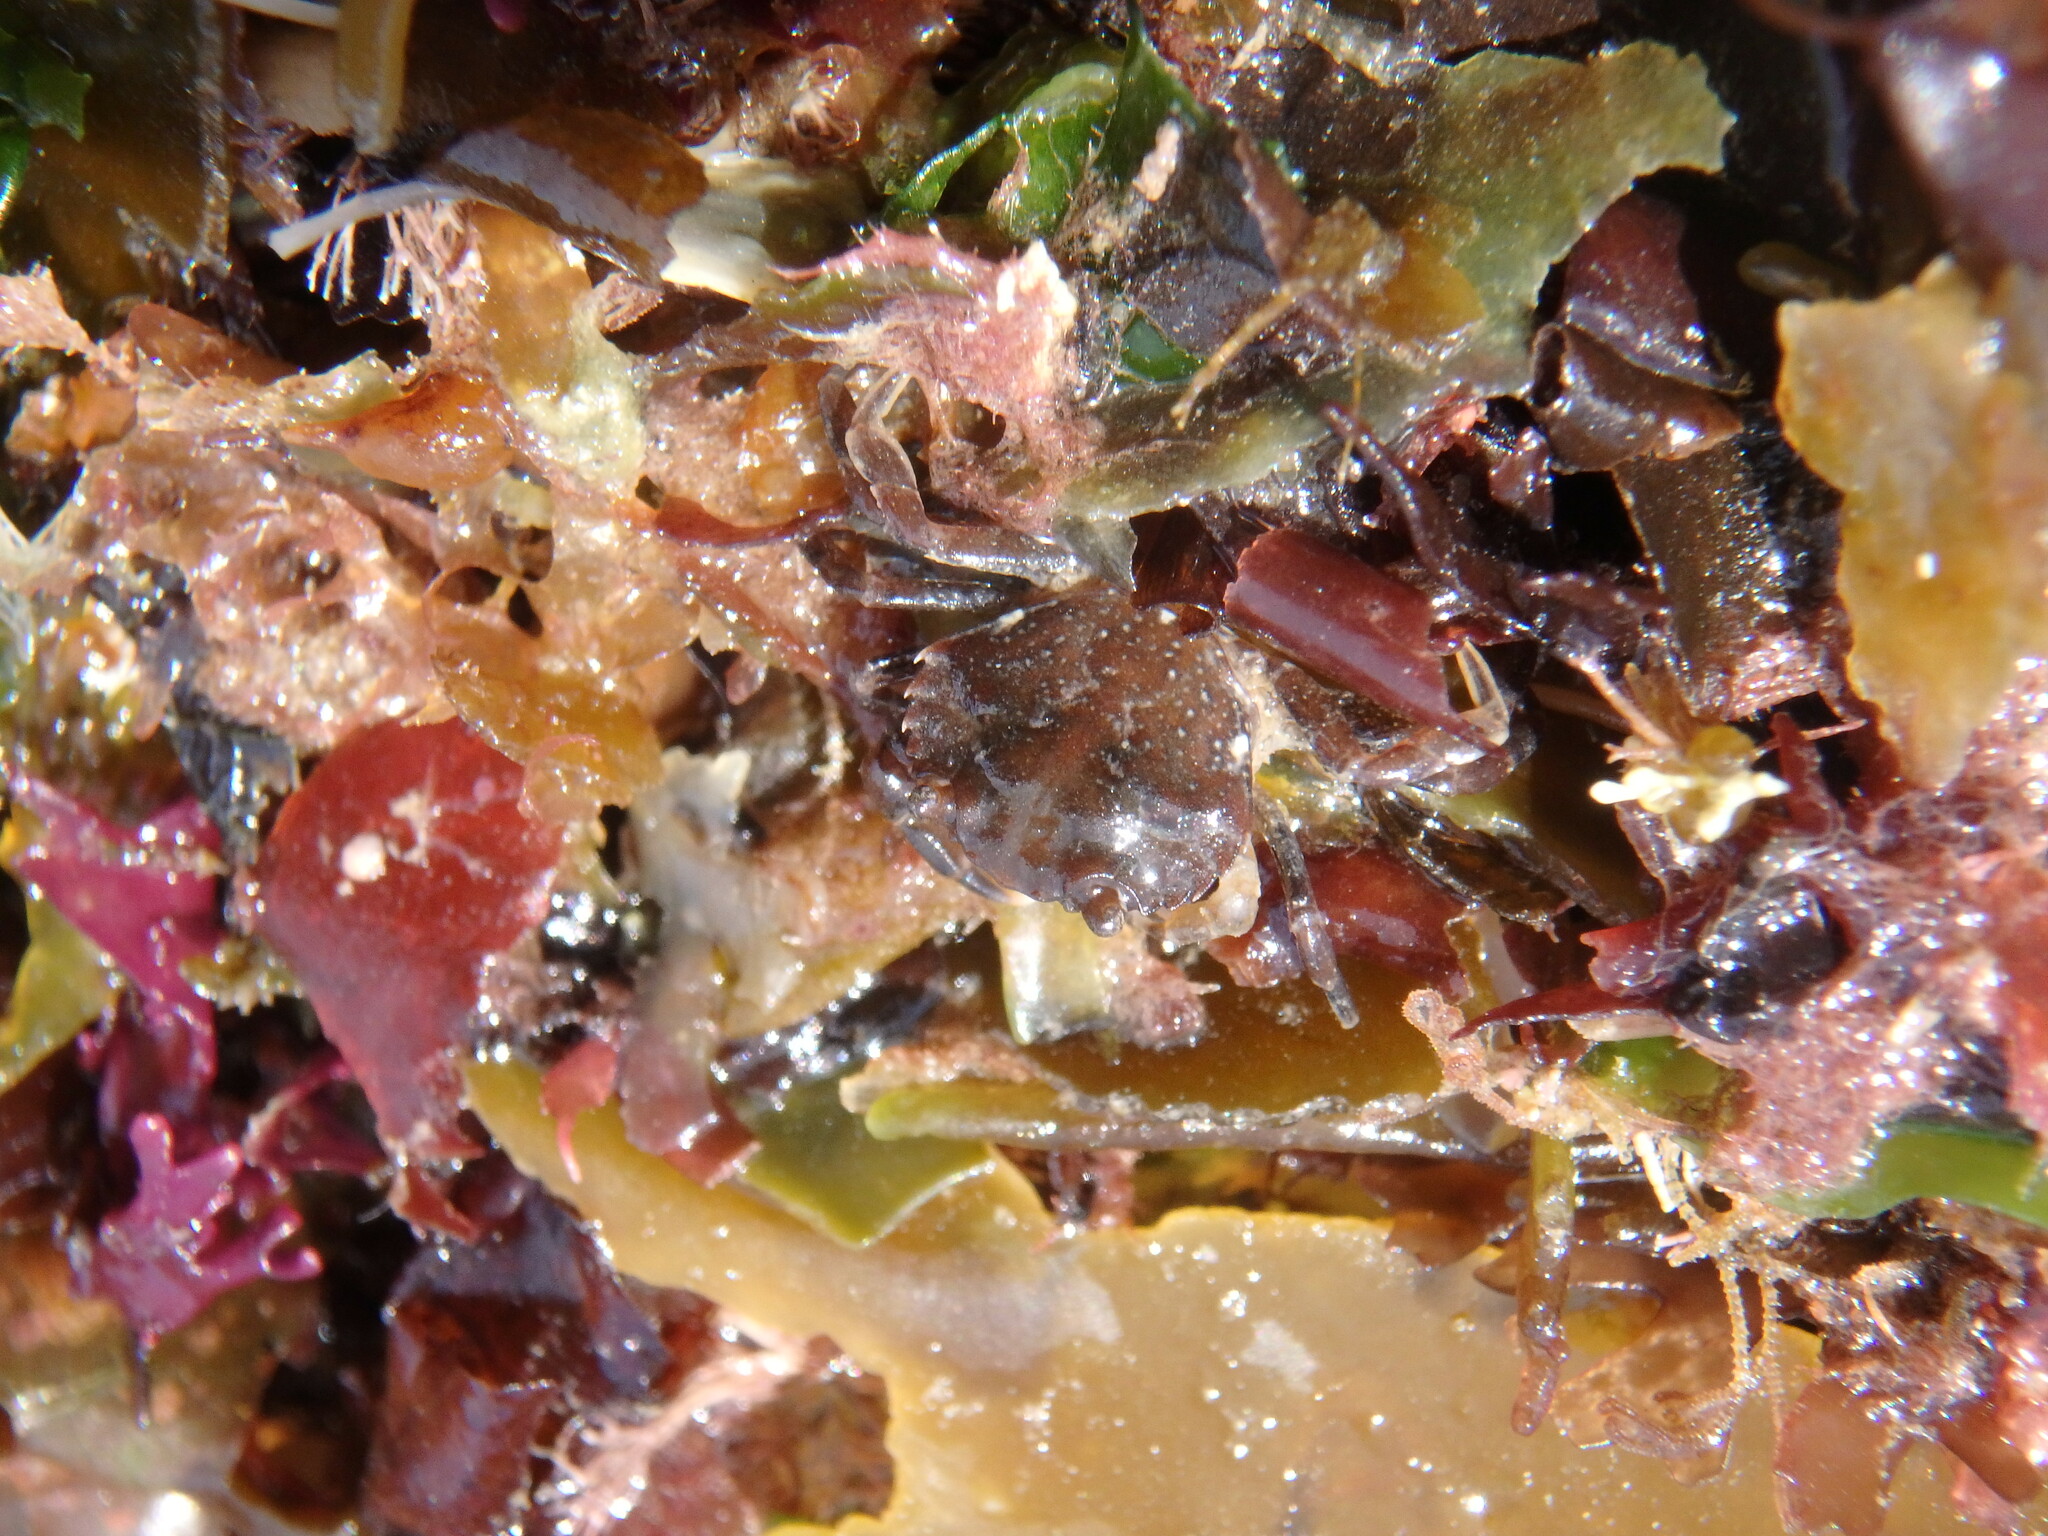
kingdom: Animalia
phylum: Arthropoda
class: Malacostraca
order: Decapoda
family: Carcinidae
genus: Carcinus
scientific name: Carcinus maenas
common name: European green crab
